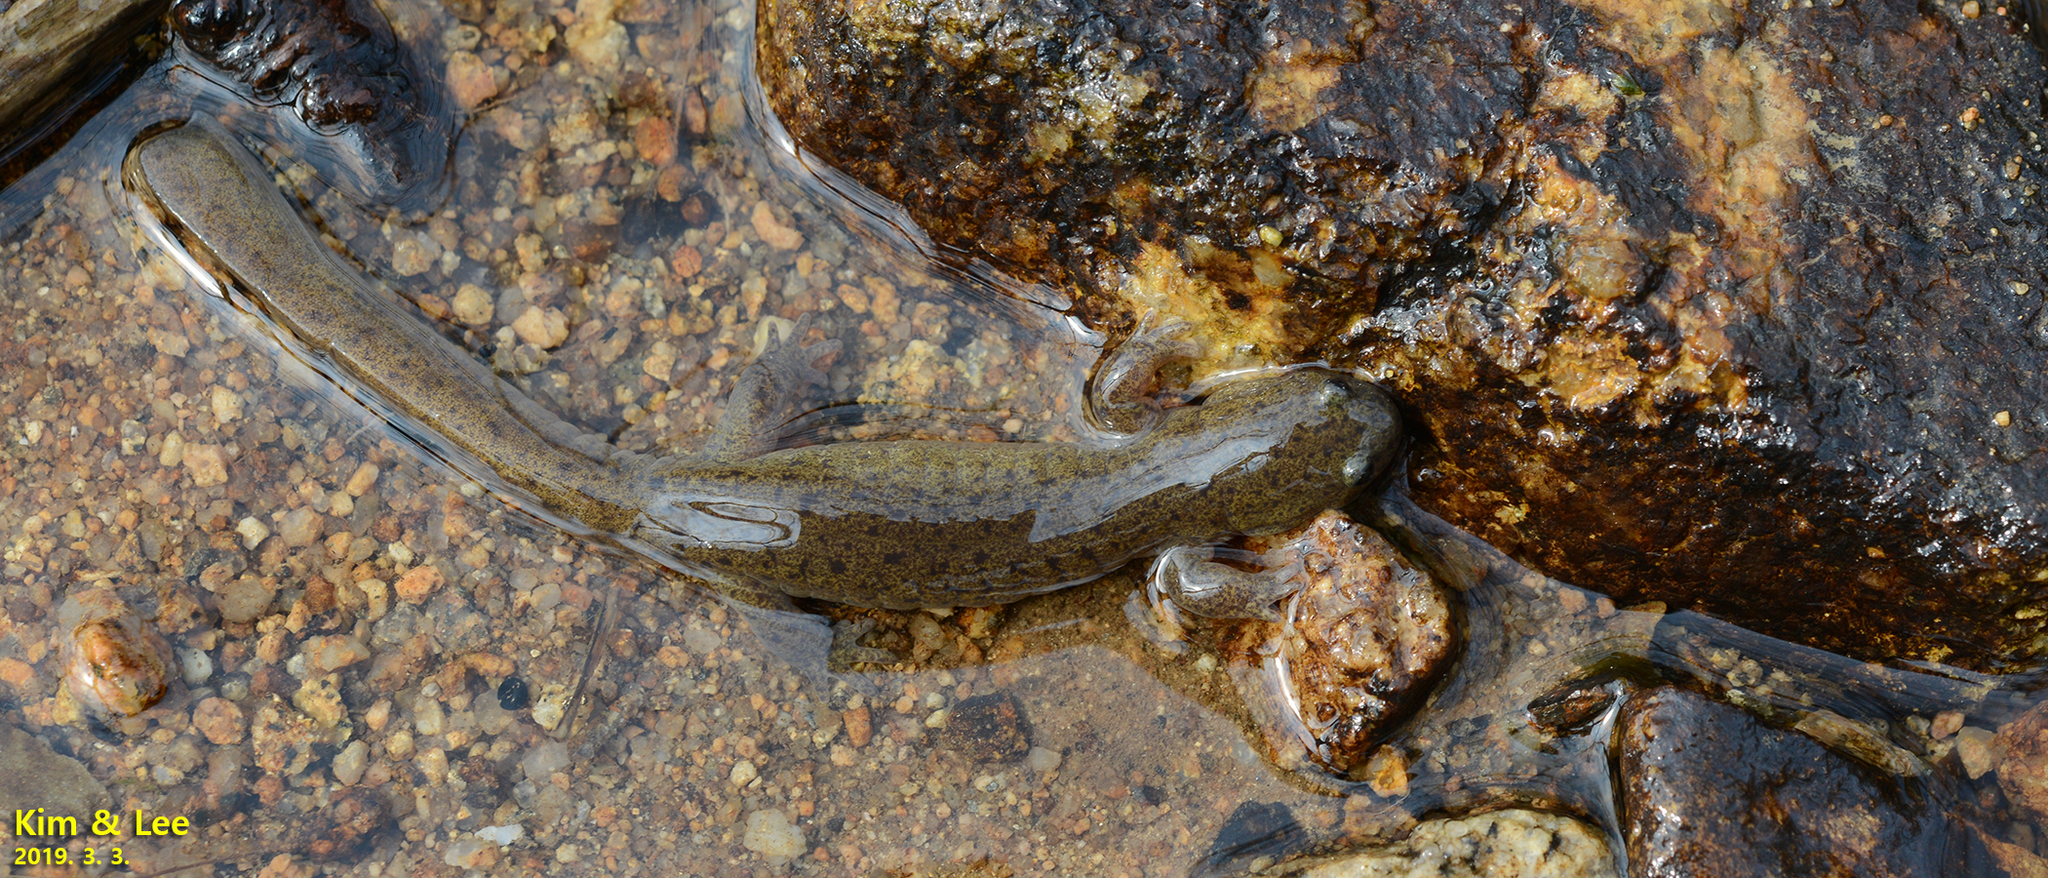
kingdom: Animalia
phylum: Chordata
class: Amphibia
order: Caudata
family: Hynobiidae
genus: Hynobius
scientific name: Hynobius perplicatus
